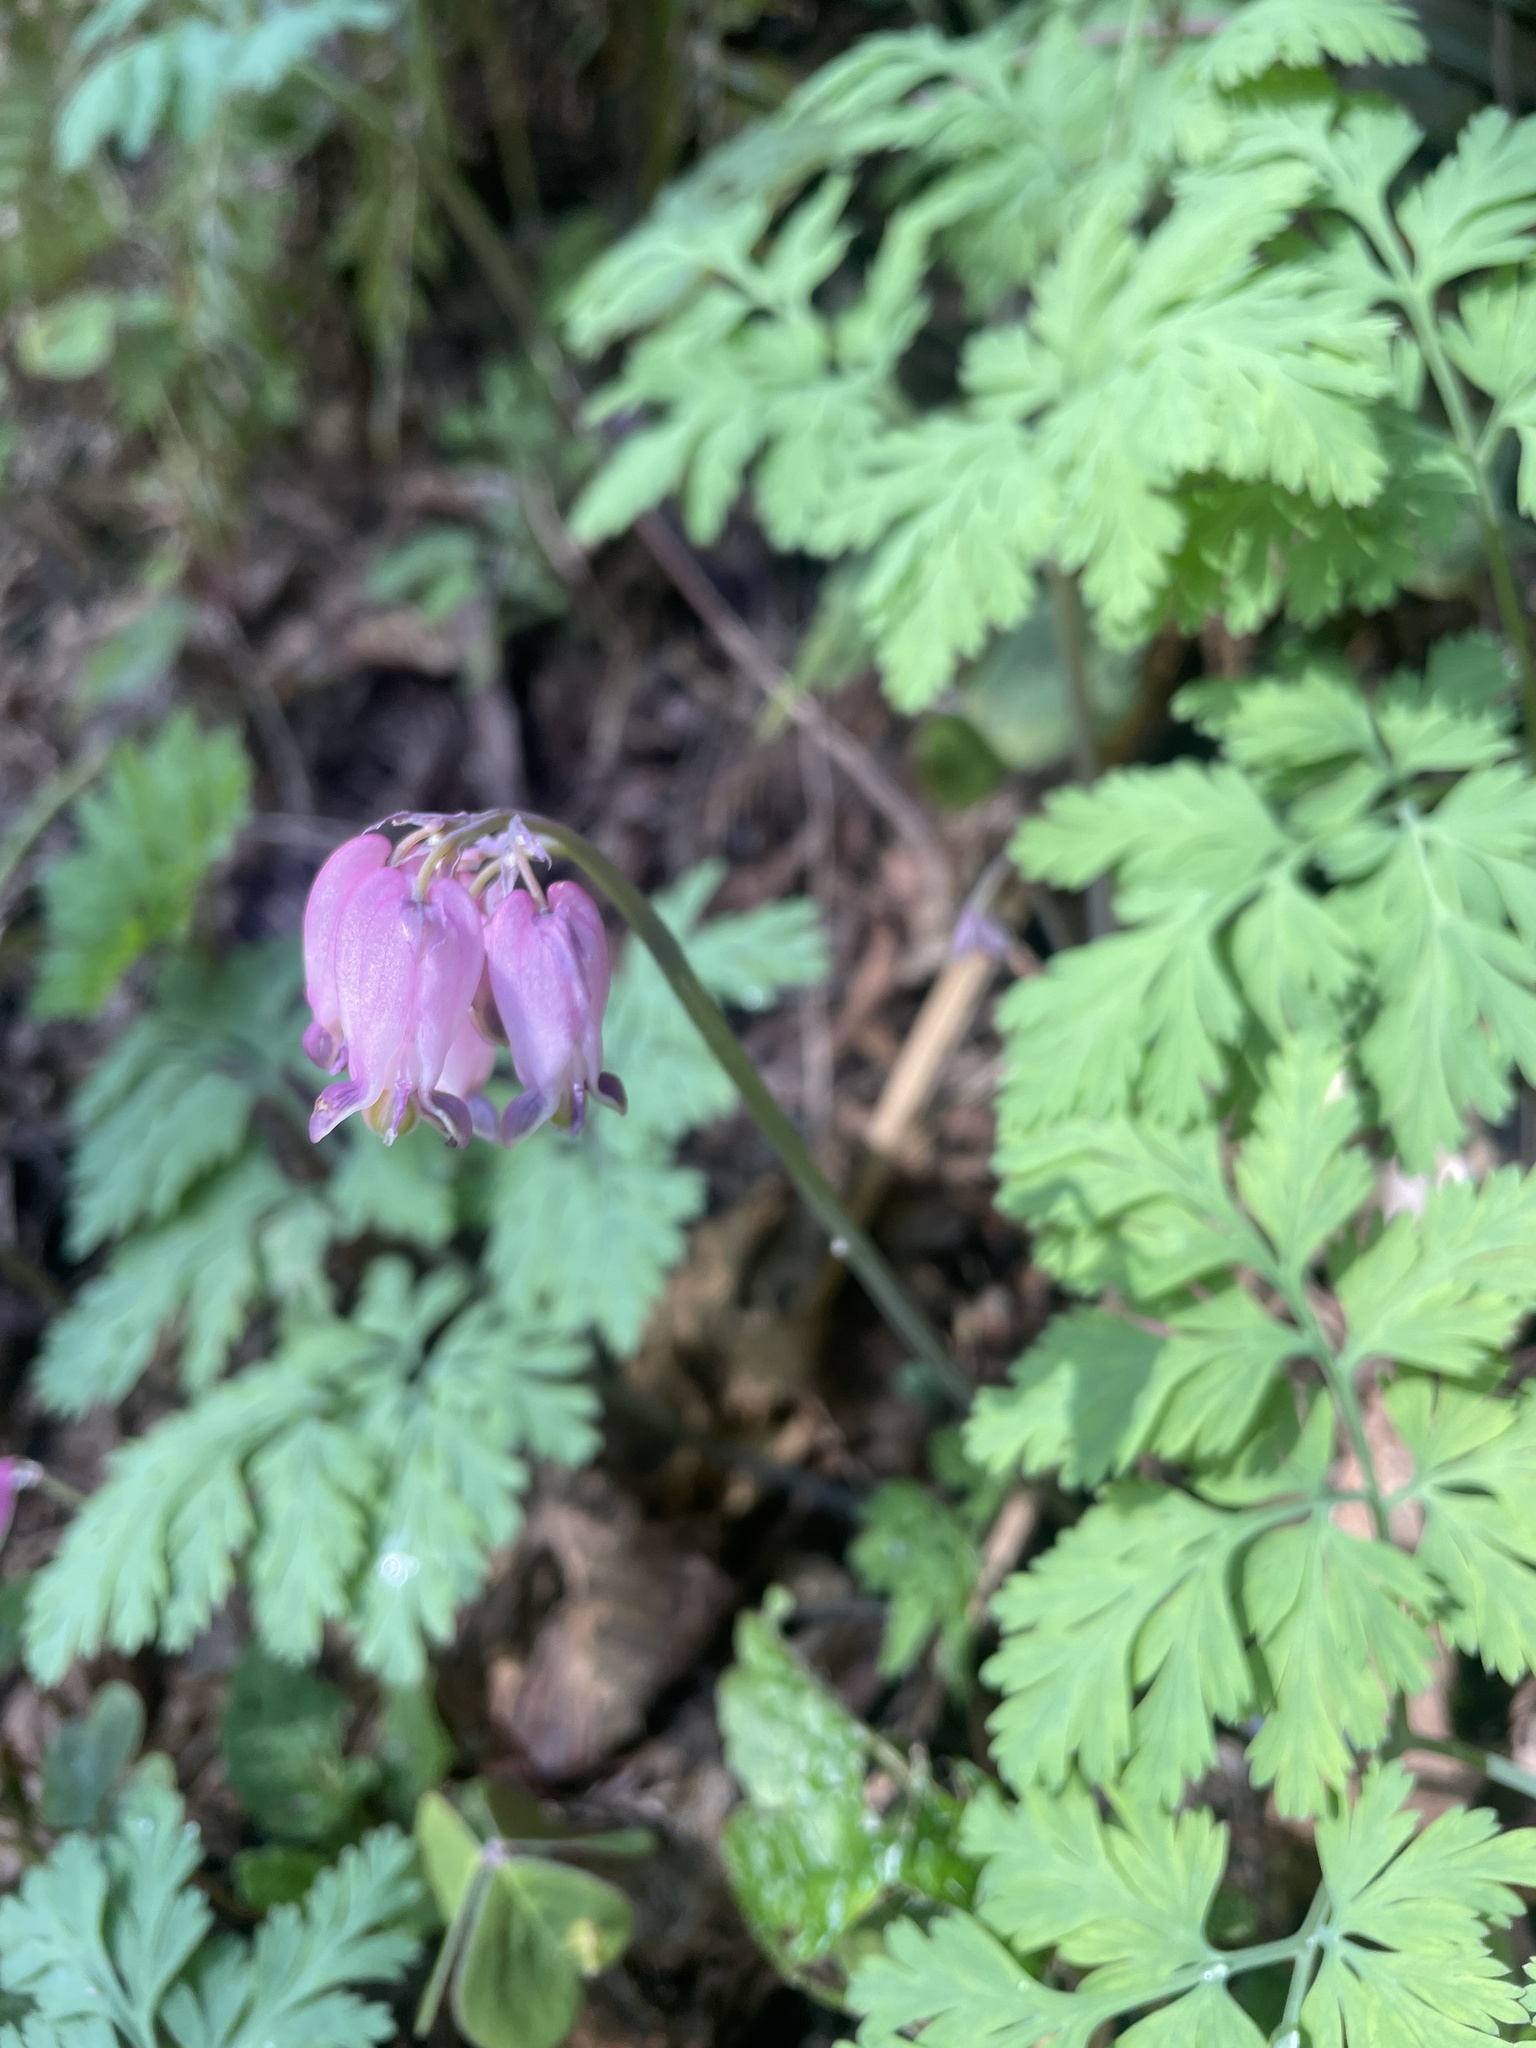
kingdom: Plantae
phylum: Tracheophyta
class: Magnoliopsida
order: Ranunculales
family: Papaveraceae
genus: Dicentra
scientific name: Dicentra formosa
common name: Bleeding-heart
